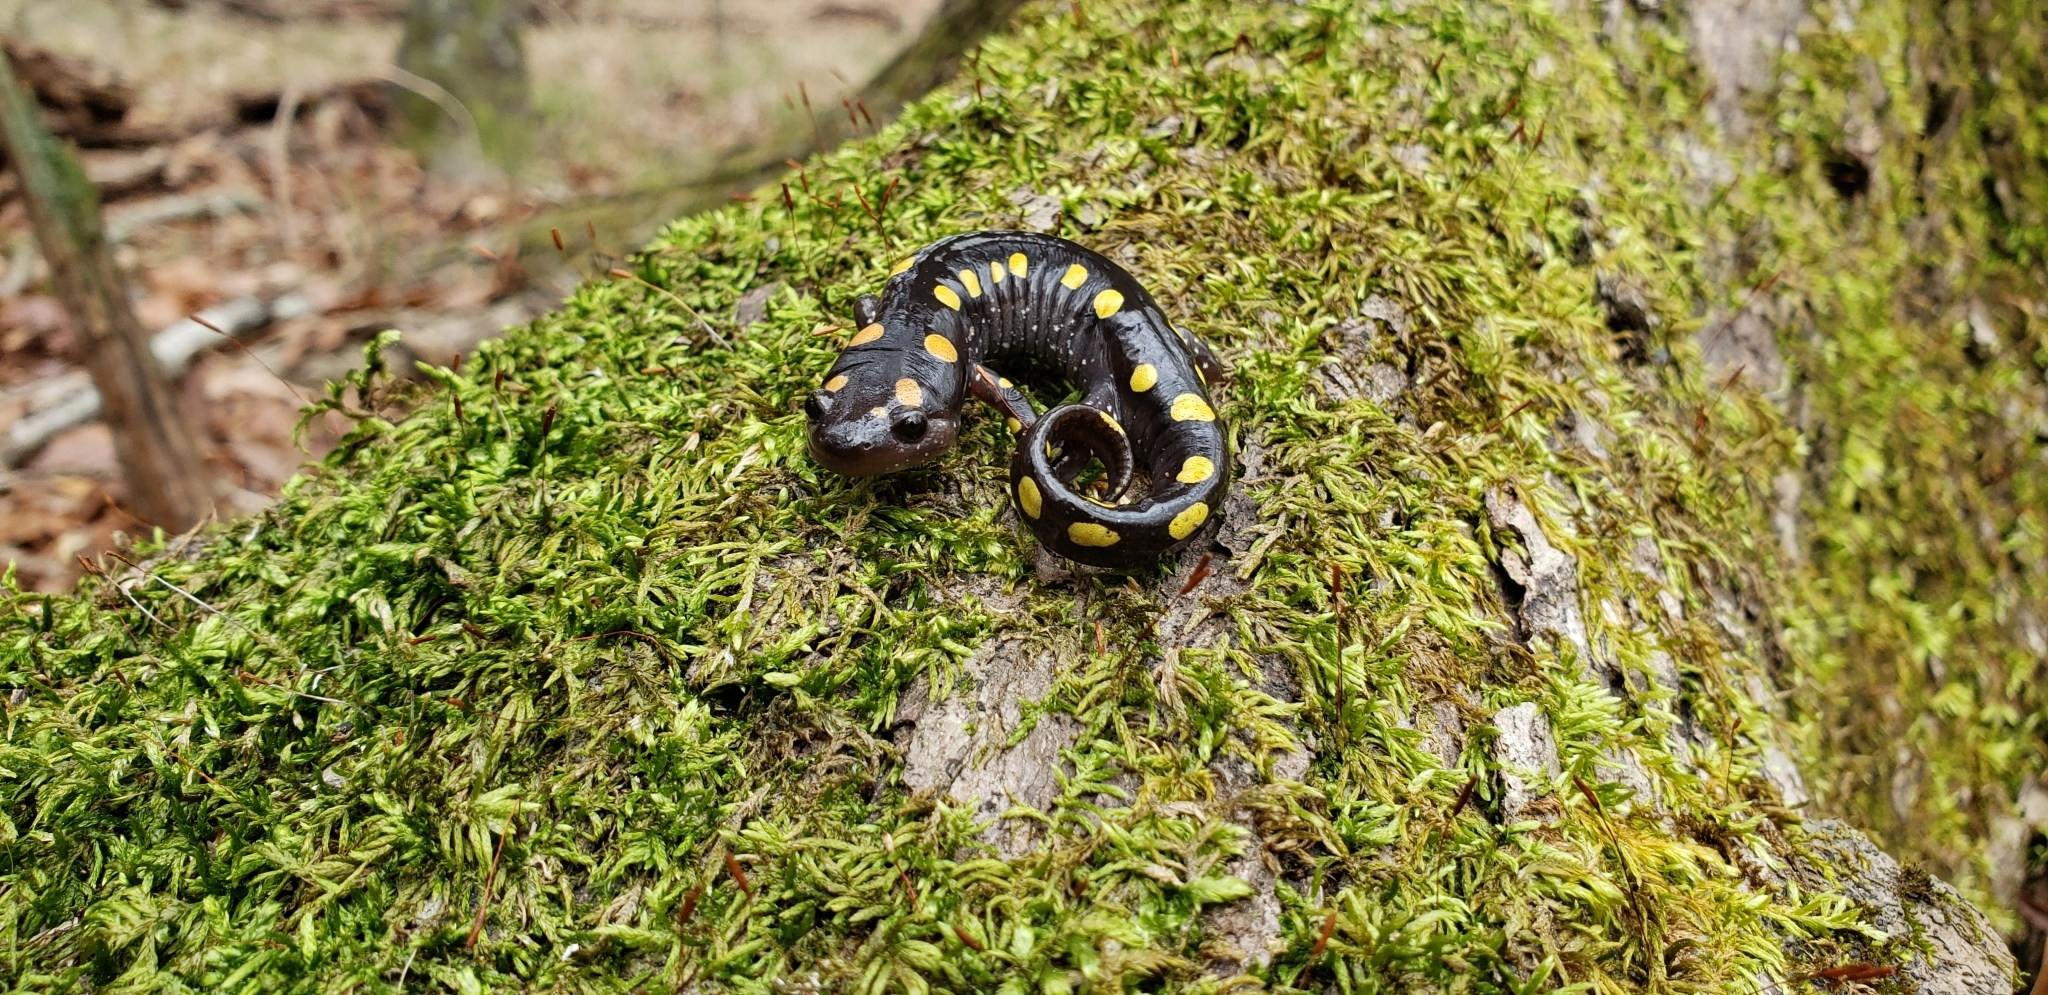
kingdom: Animalia
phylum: Chordata
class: Amphibia
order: Caudata
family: Ambystomatidae
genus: Ambystoma
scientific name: Ambystoma maculatum
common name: Spotted salamander
